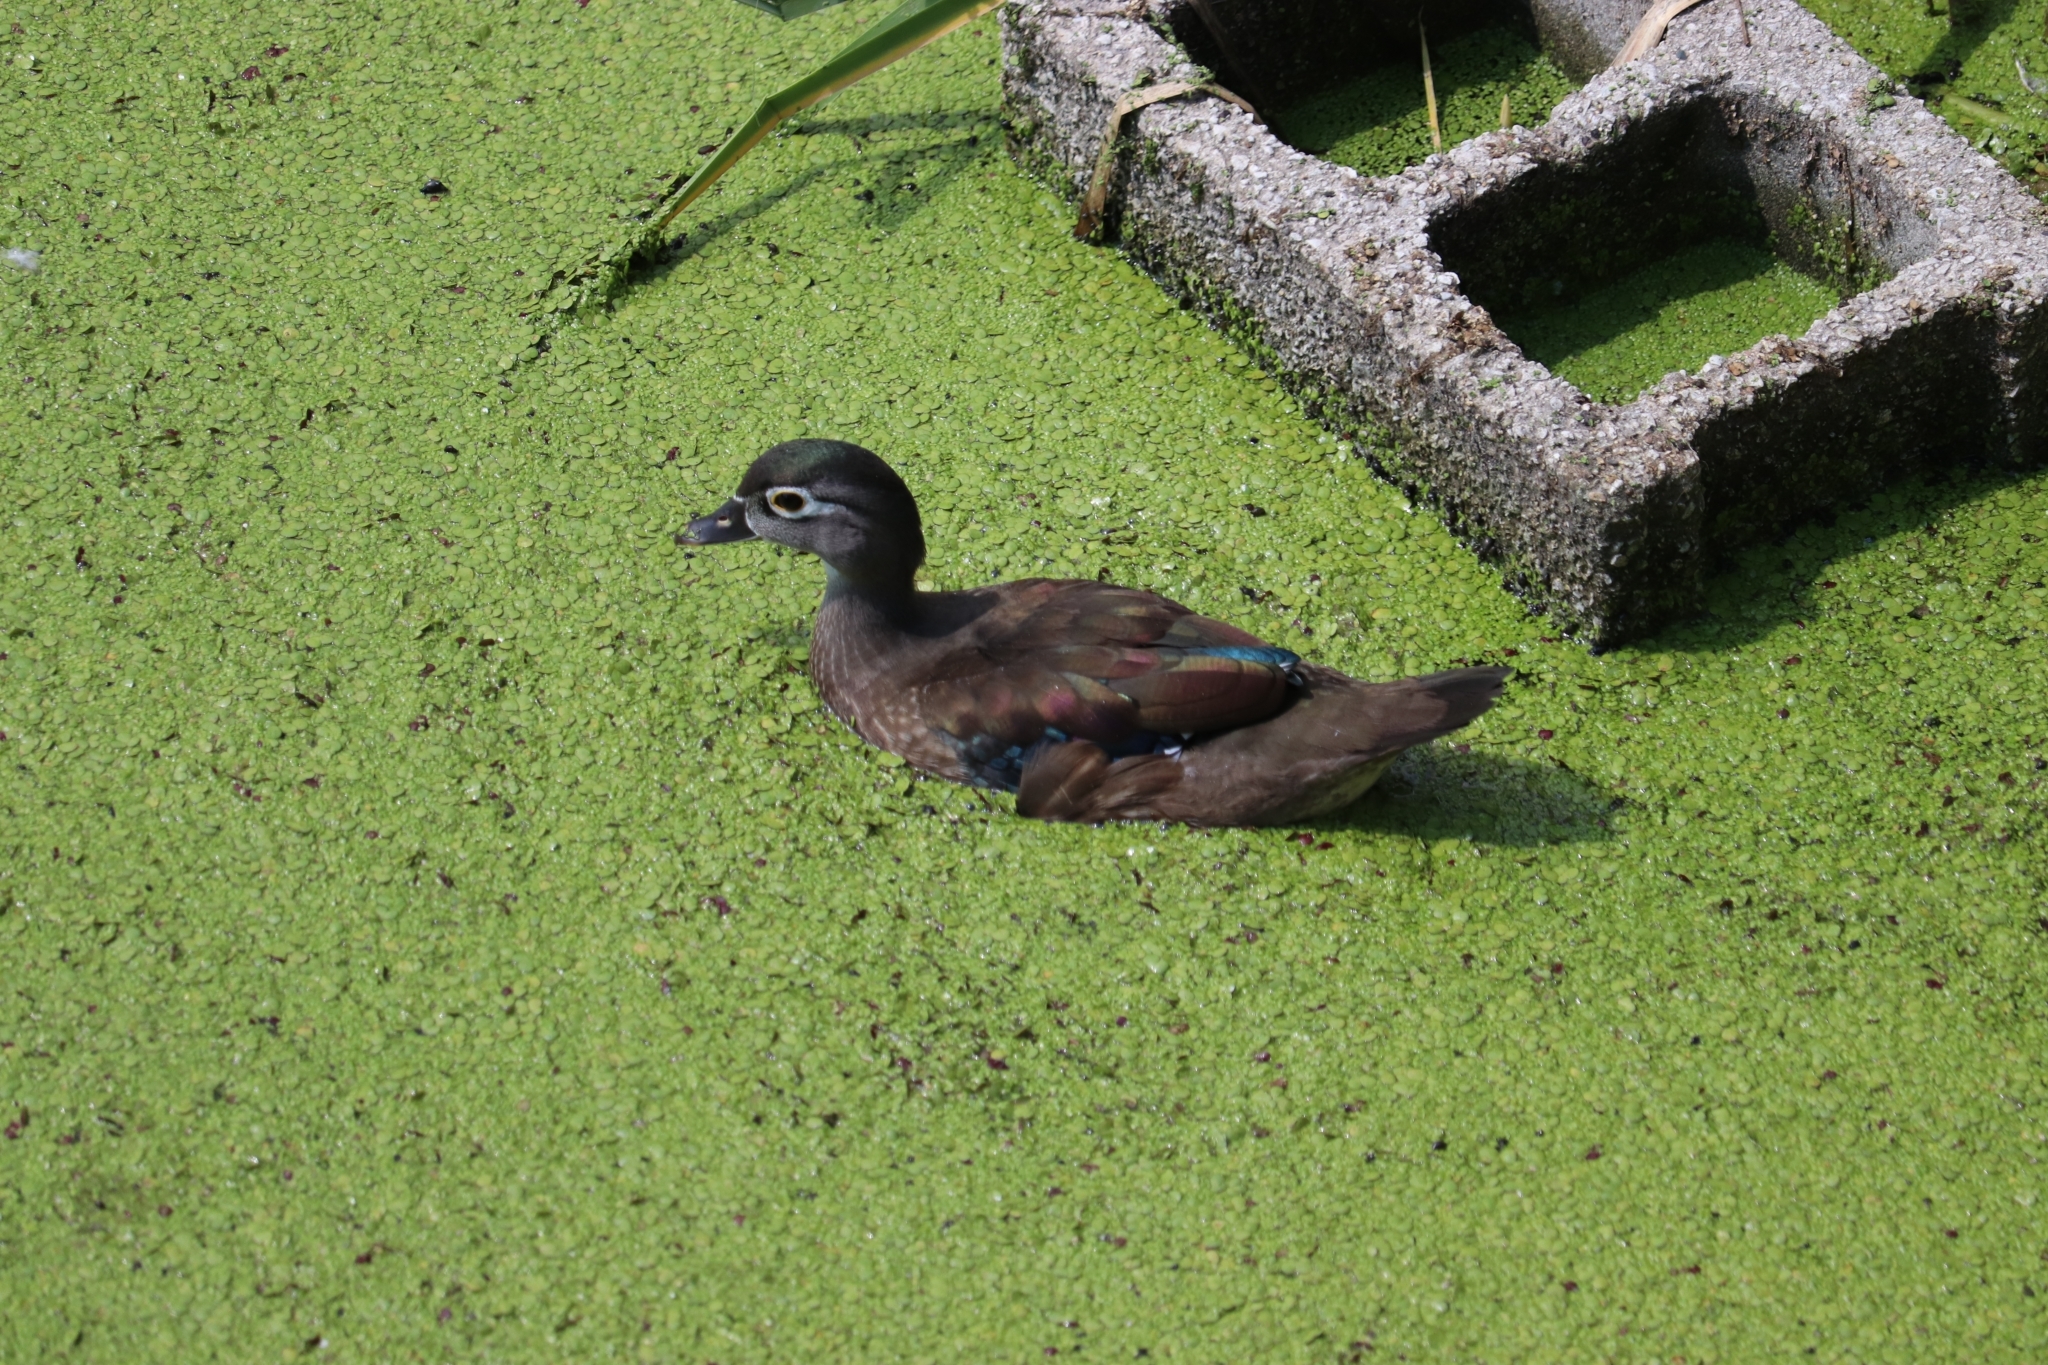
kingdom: Animalia
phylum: Chordata
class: Aves
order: Anseriformes
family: Anatidae
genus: Aix
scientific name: Aix sponsa
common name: Wood duck
